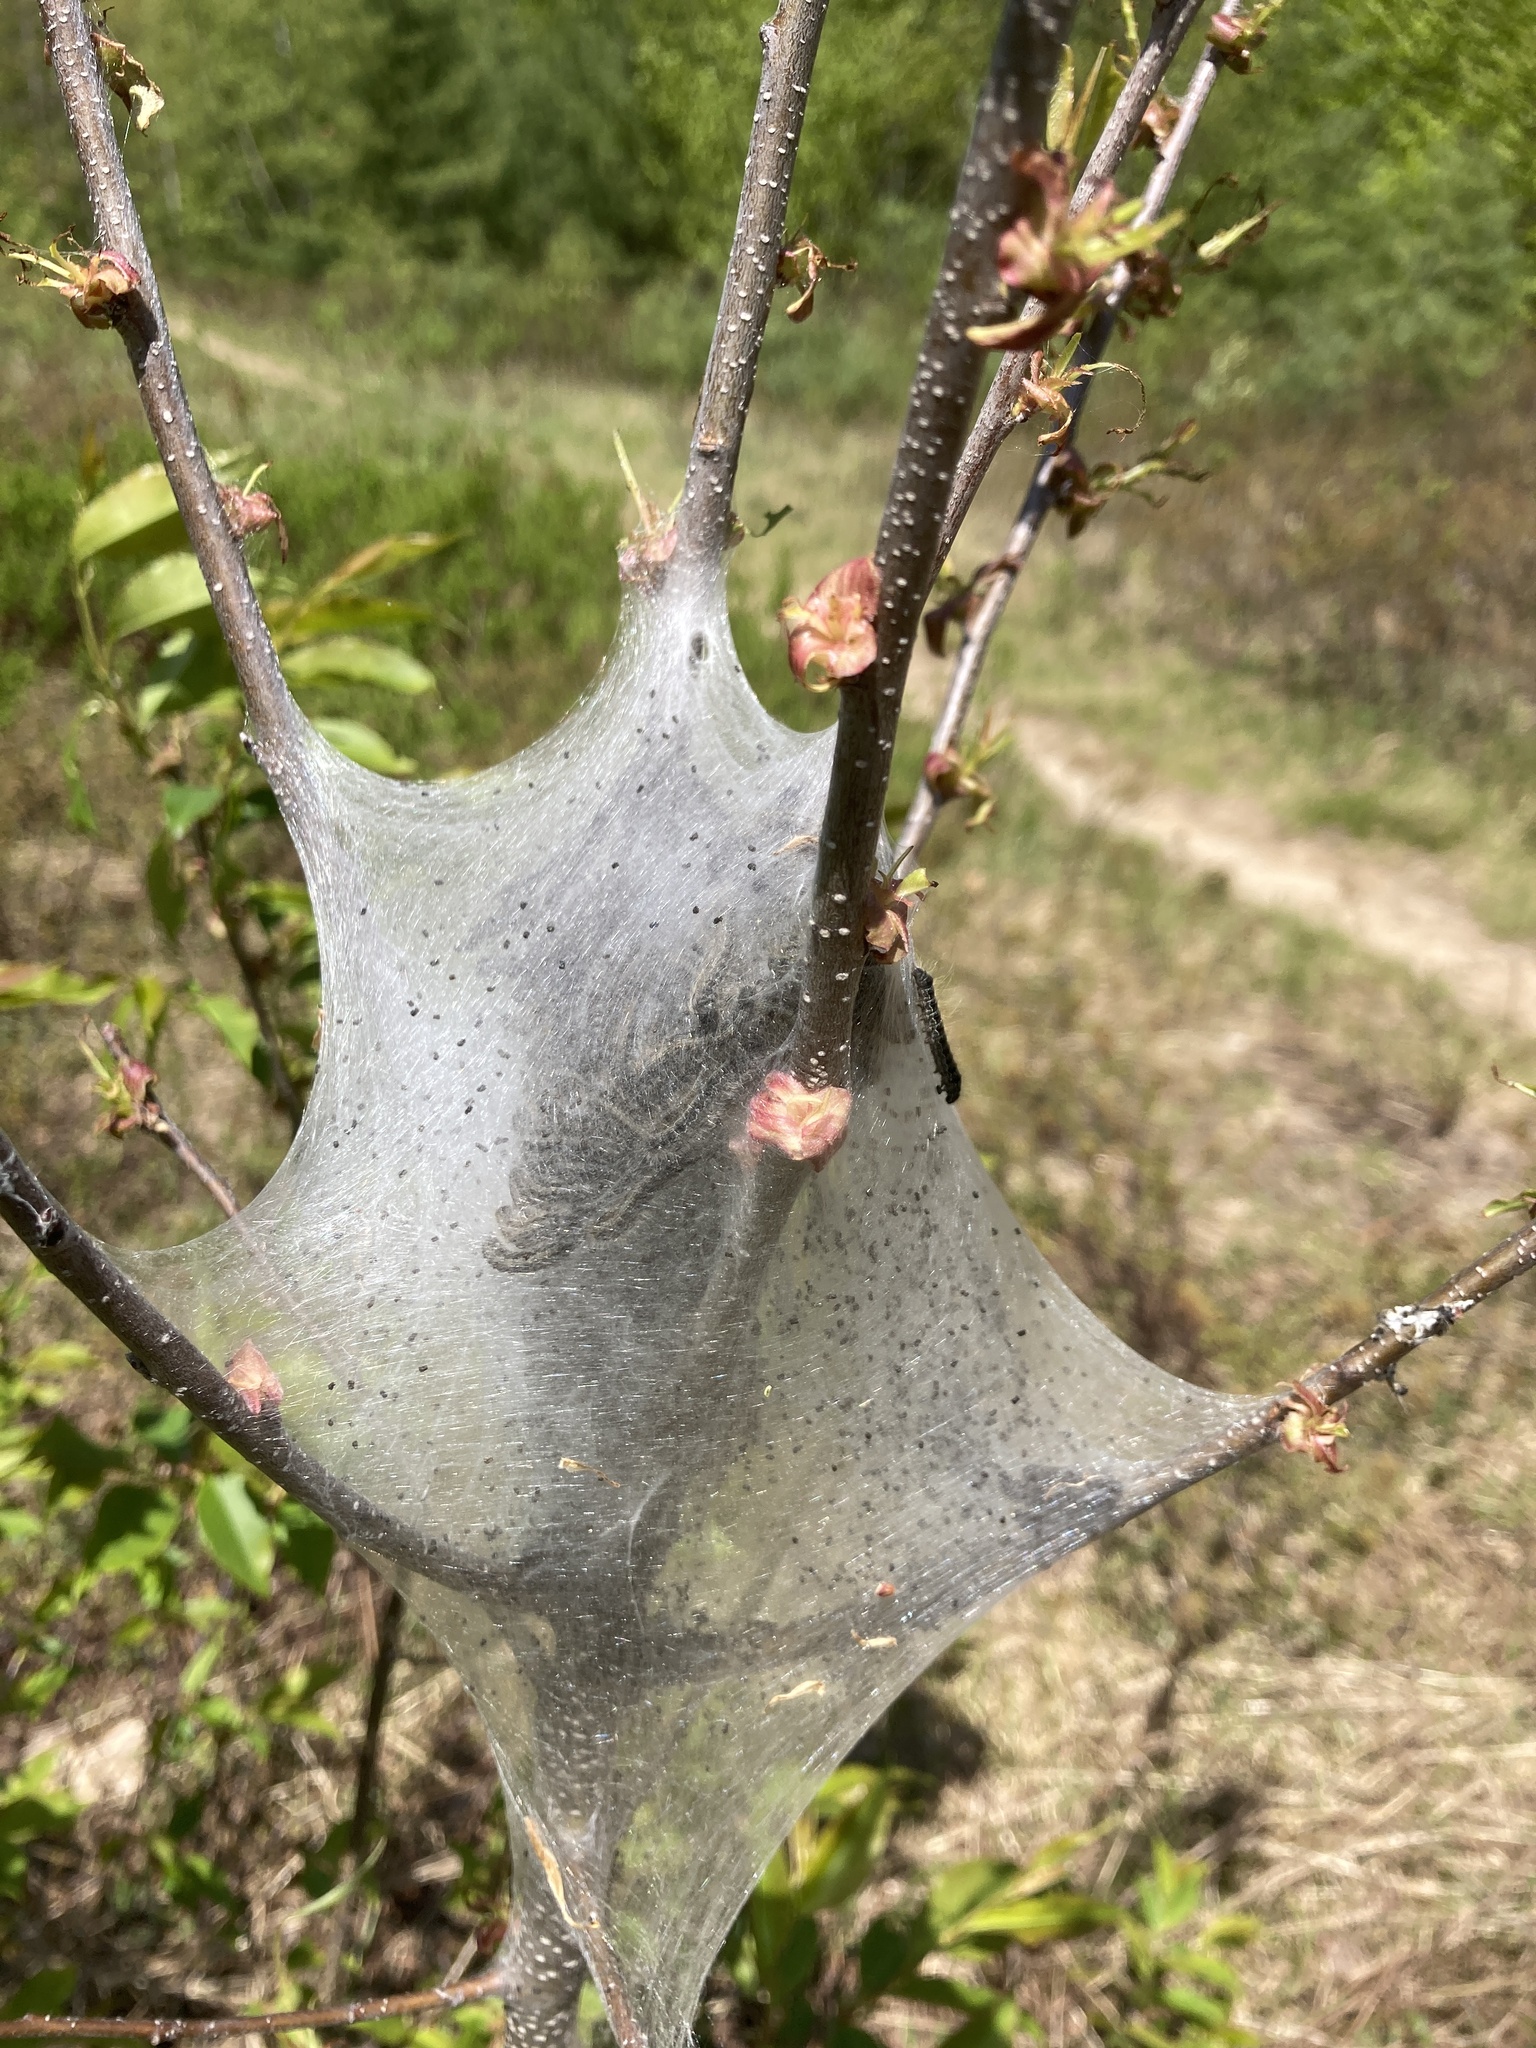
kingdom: Animalia
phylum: Arthropoda
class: Insecta
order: Lepidoptera
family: Lasiocampidae
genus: Malacosoma
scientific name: Malacosoma americana
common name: Eastern tent caterpillar moth
